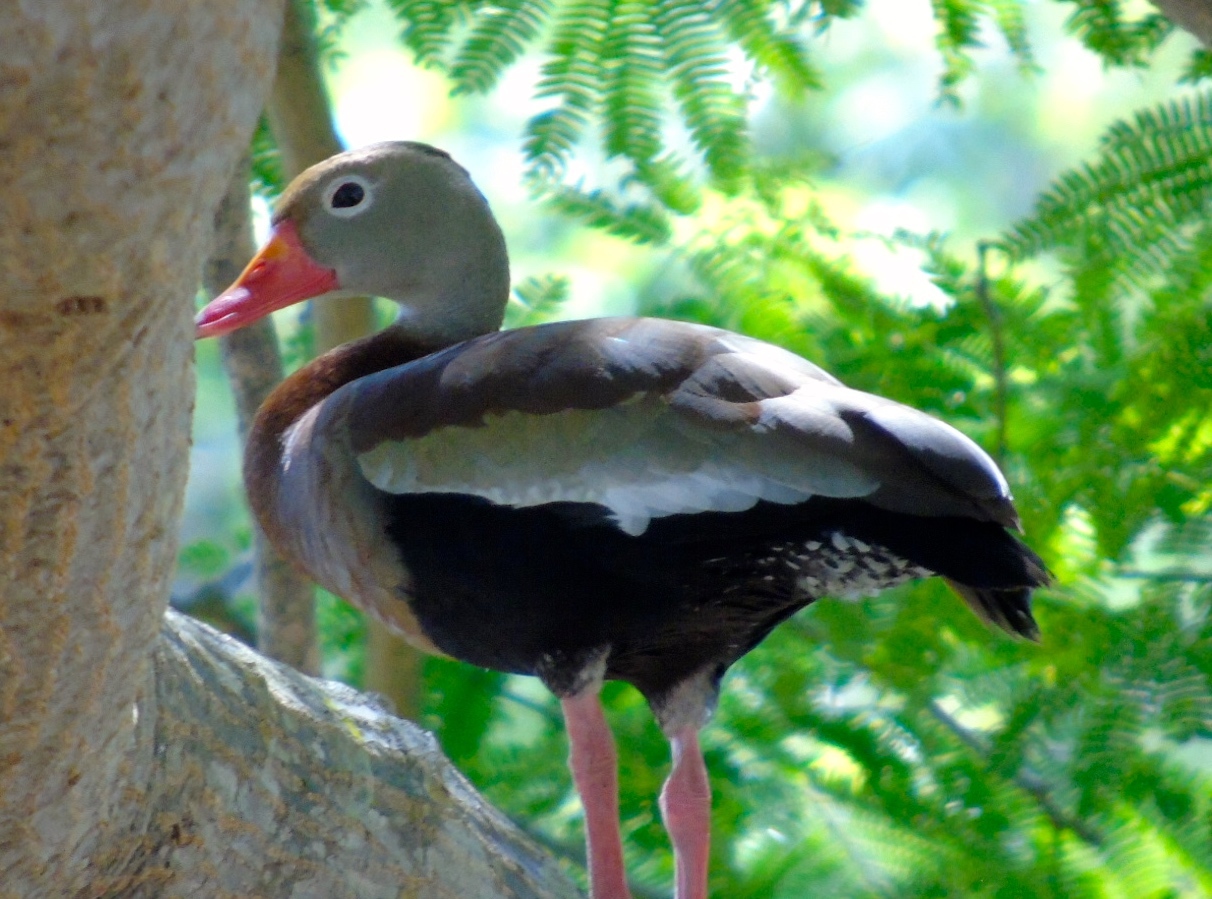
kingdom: Animalia
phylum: Chordata
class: Aves
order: Anseriformes
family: Anatidae
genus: Dendrocygna
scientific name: Dendrocygna autumnalis
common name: Black-bellied whistling duck
